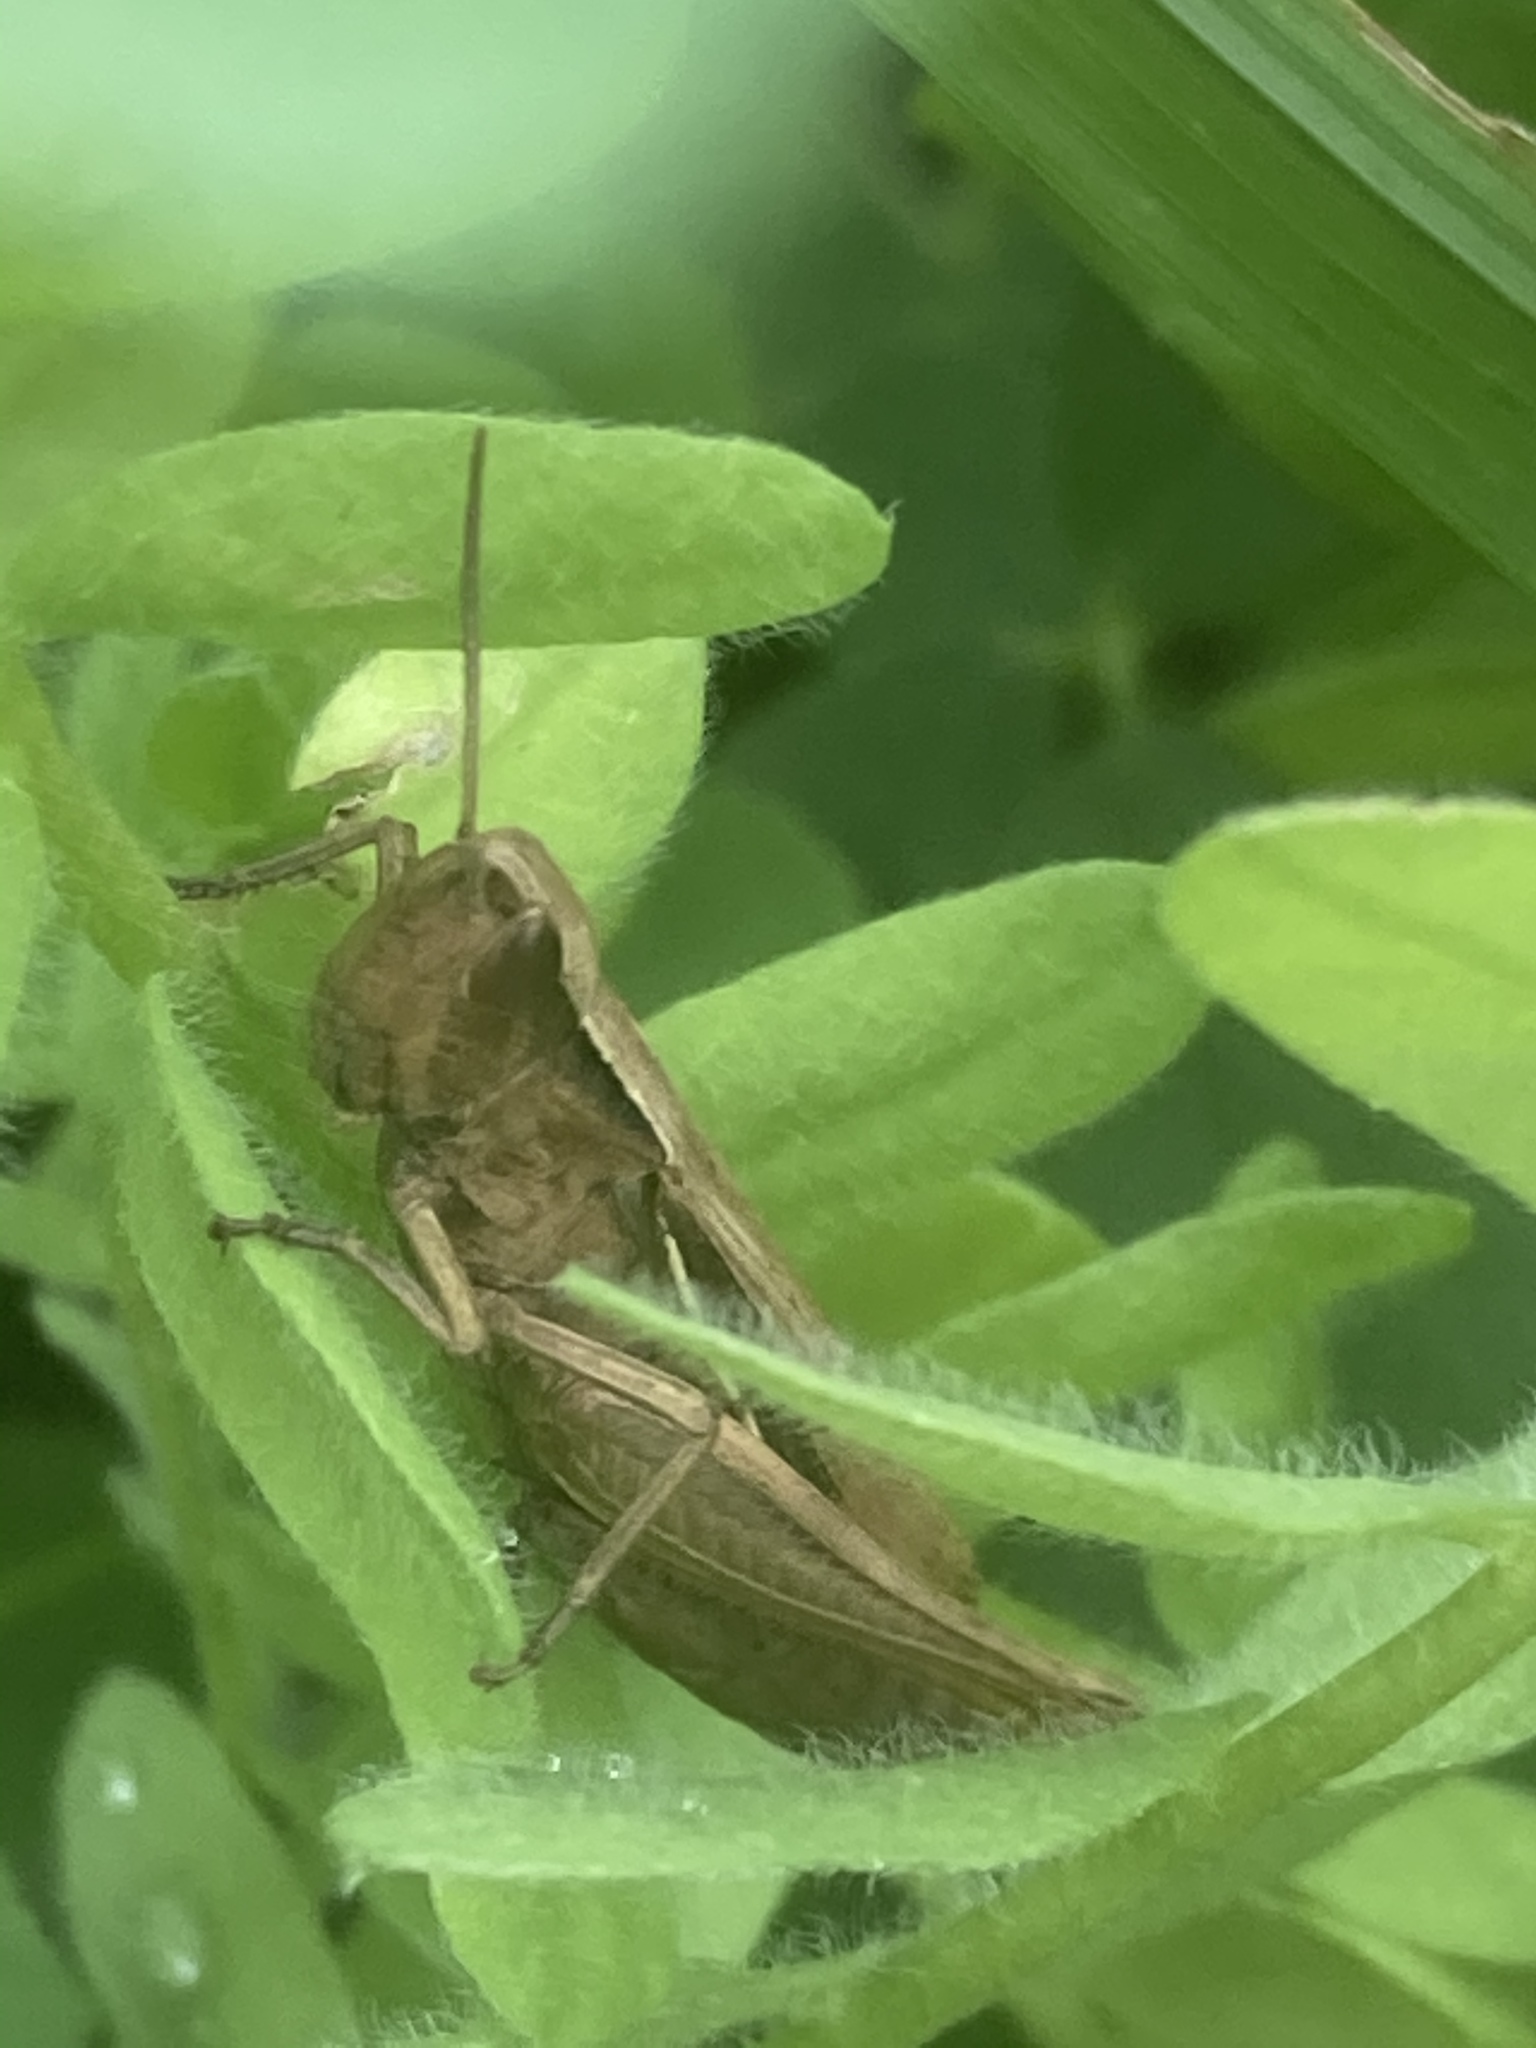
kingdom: Animalia
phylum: Arthropoda
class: Insecta
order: Orthoptera
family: Acrididae
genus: Chorthippus
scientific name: Chorthippus albomarginatus
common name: Lesser marsh grasshopper
